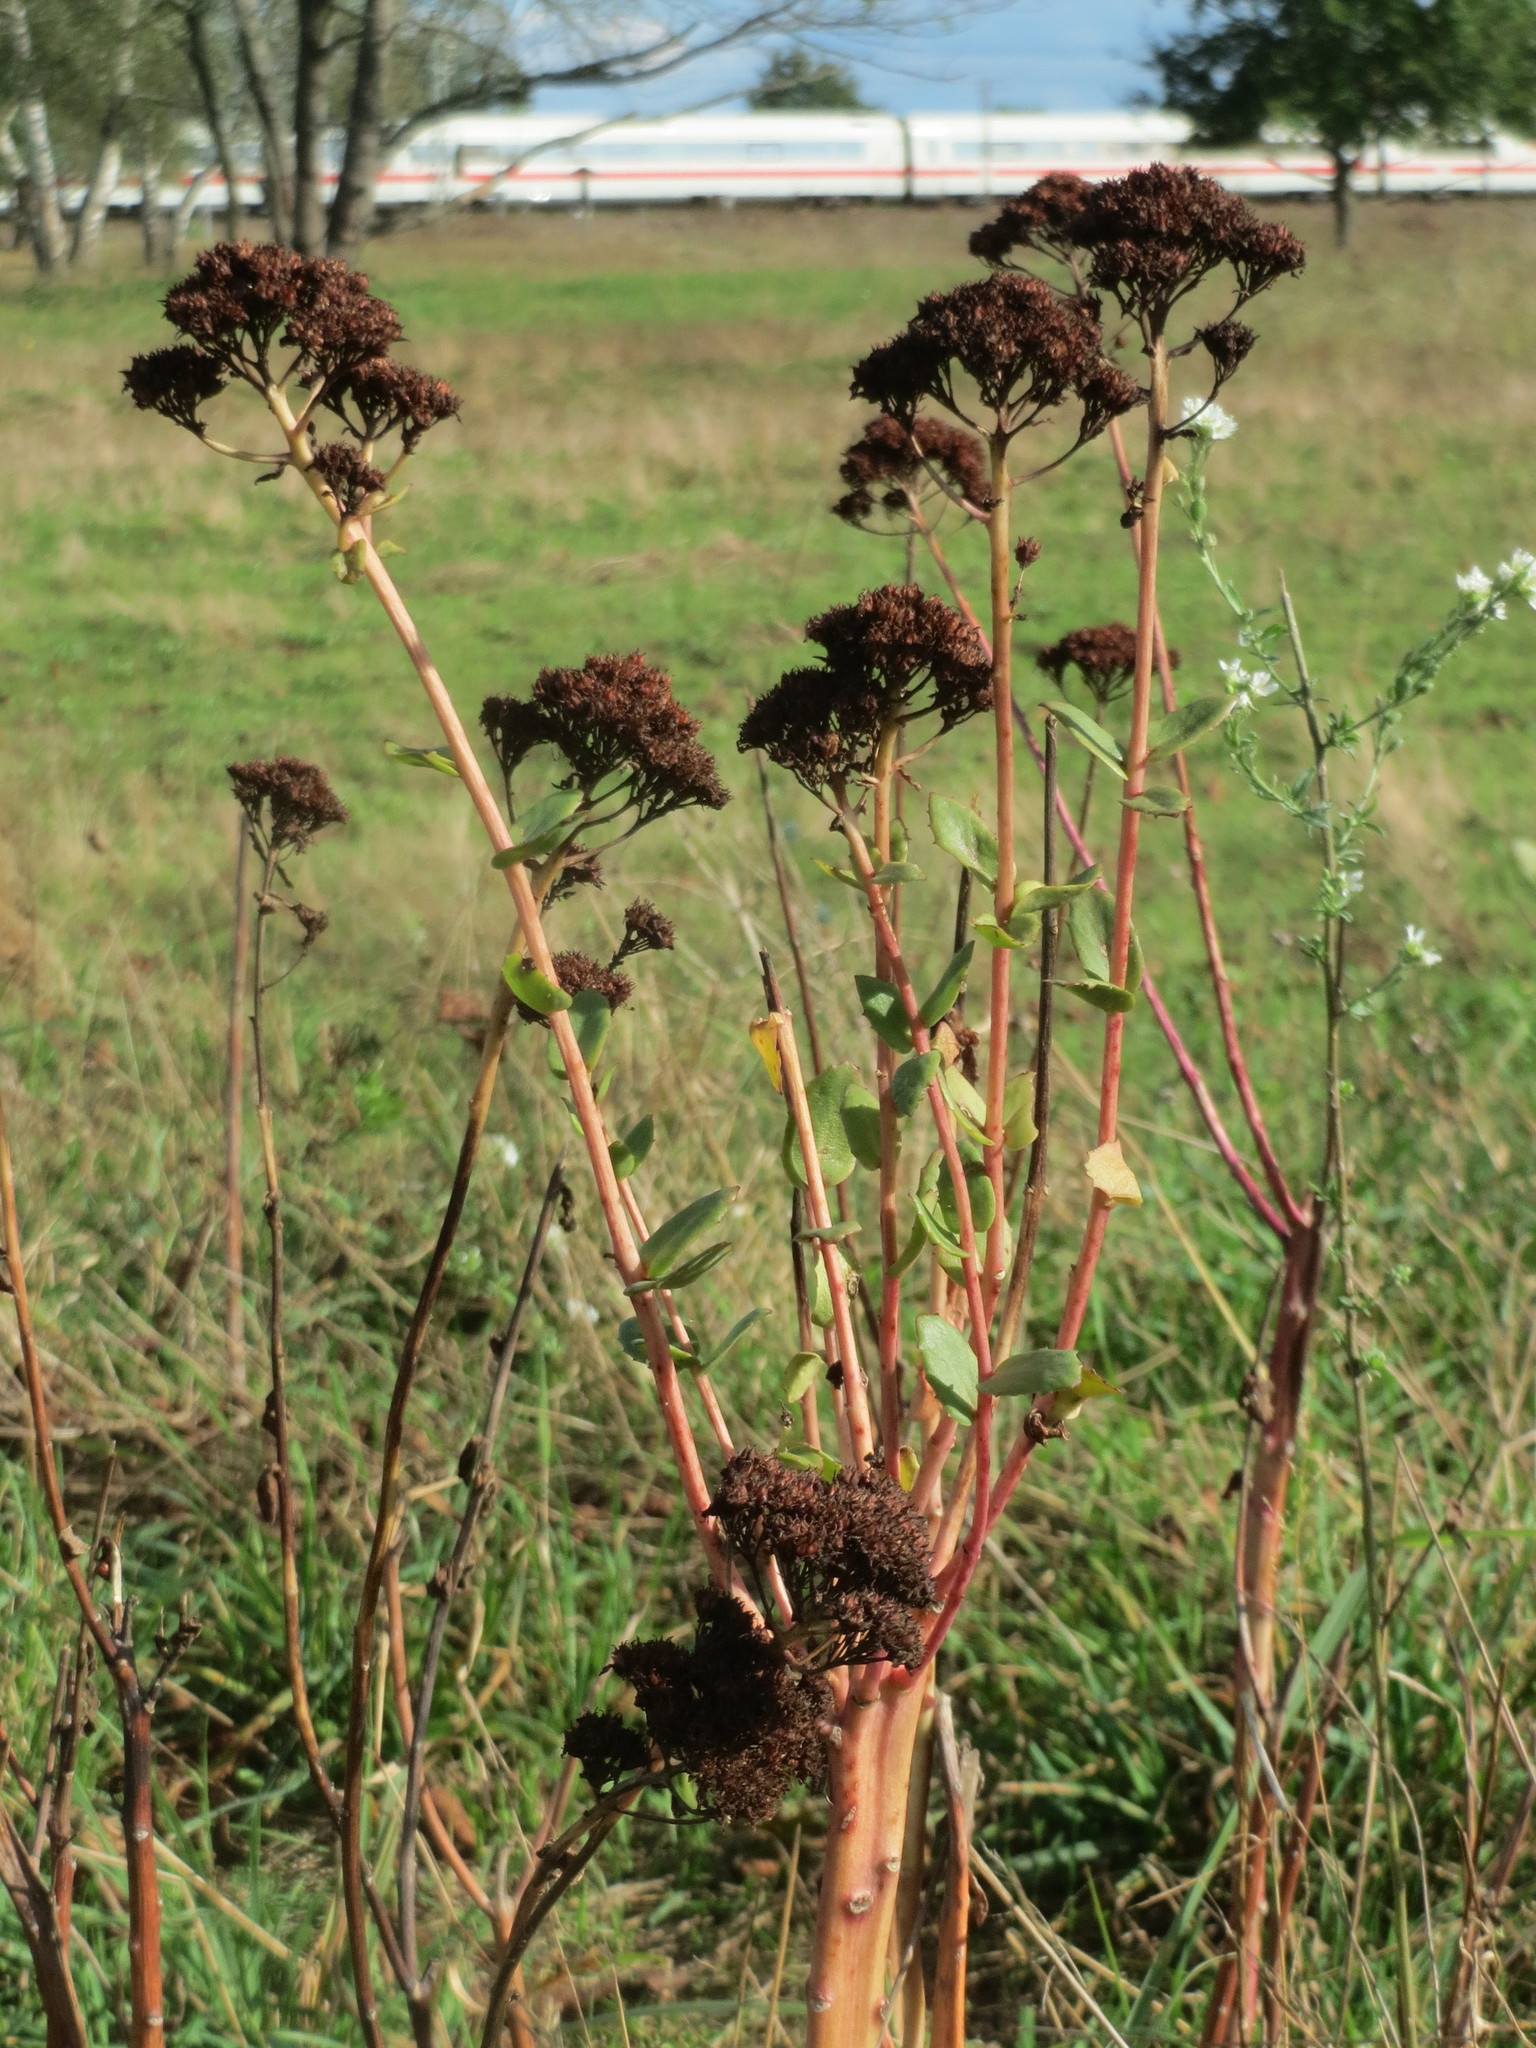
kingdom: Plantae
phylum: Tracheophyta
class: Magnoliopsida
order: Saxifragales
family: Crassulaceae
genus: Hylotelephium
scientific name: Hylotelephium telephium
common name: Live-forever
